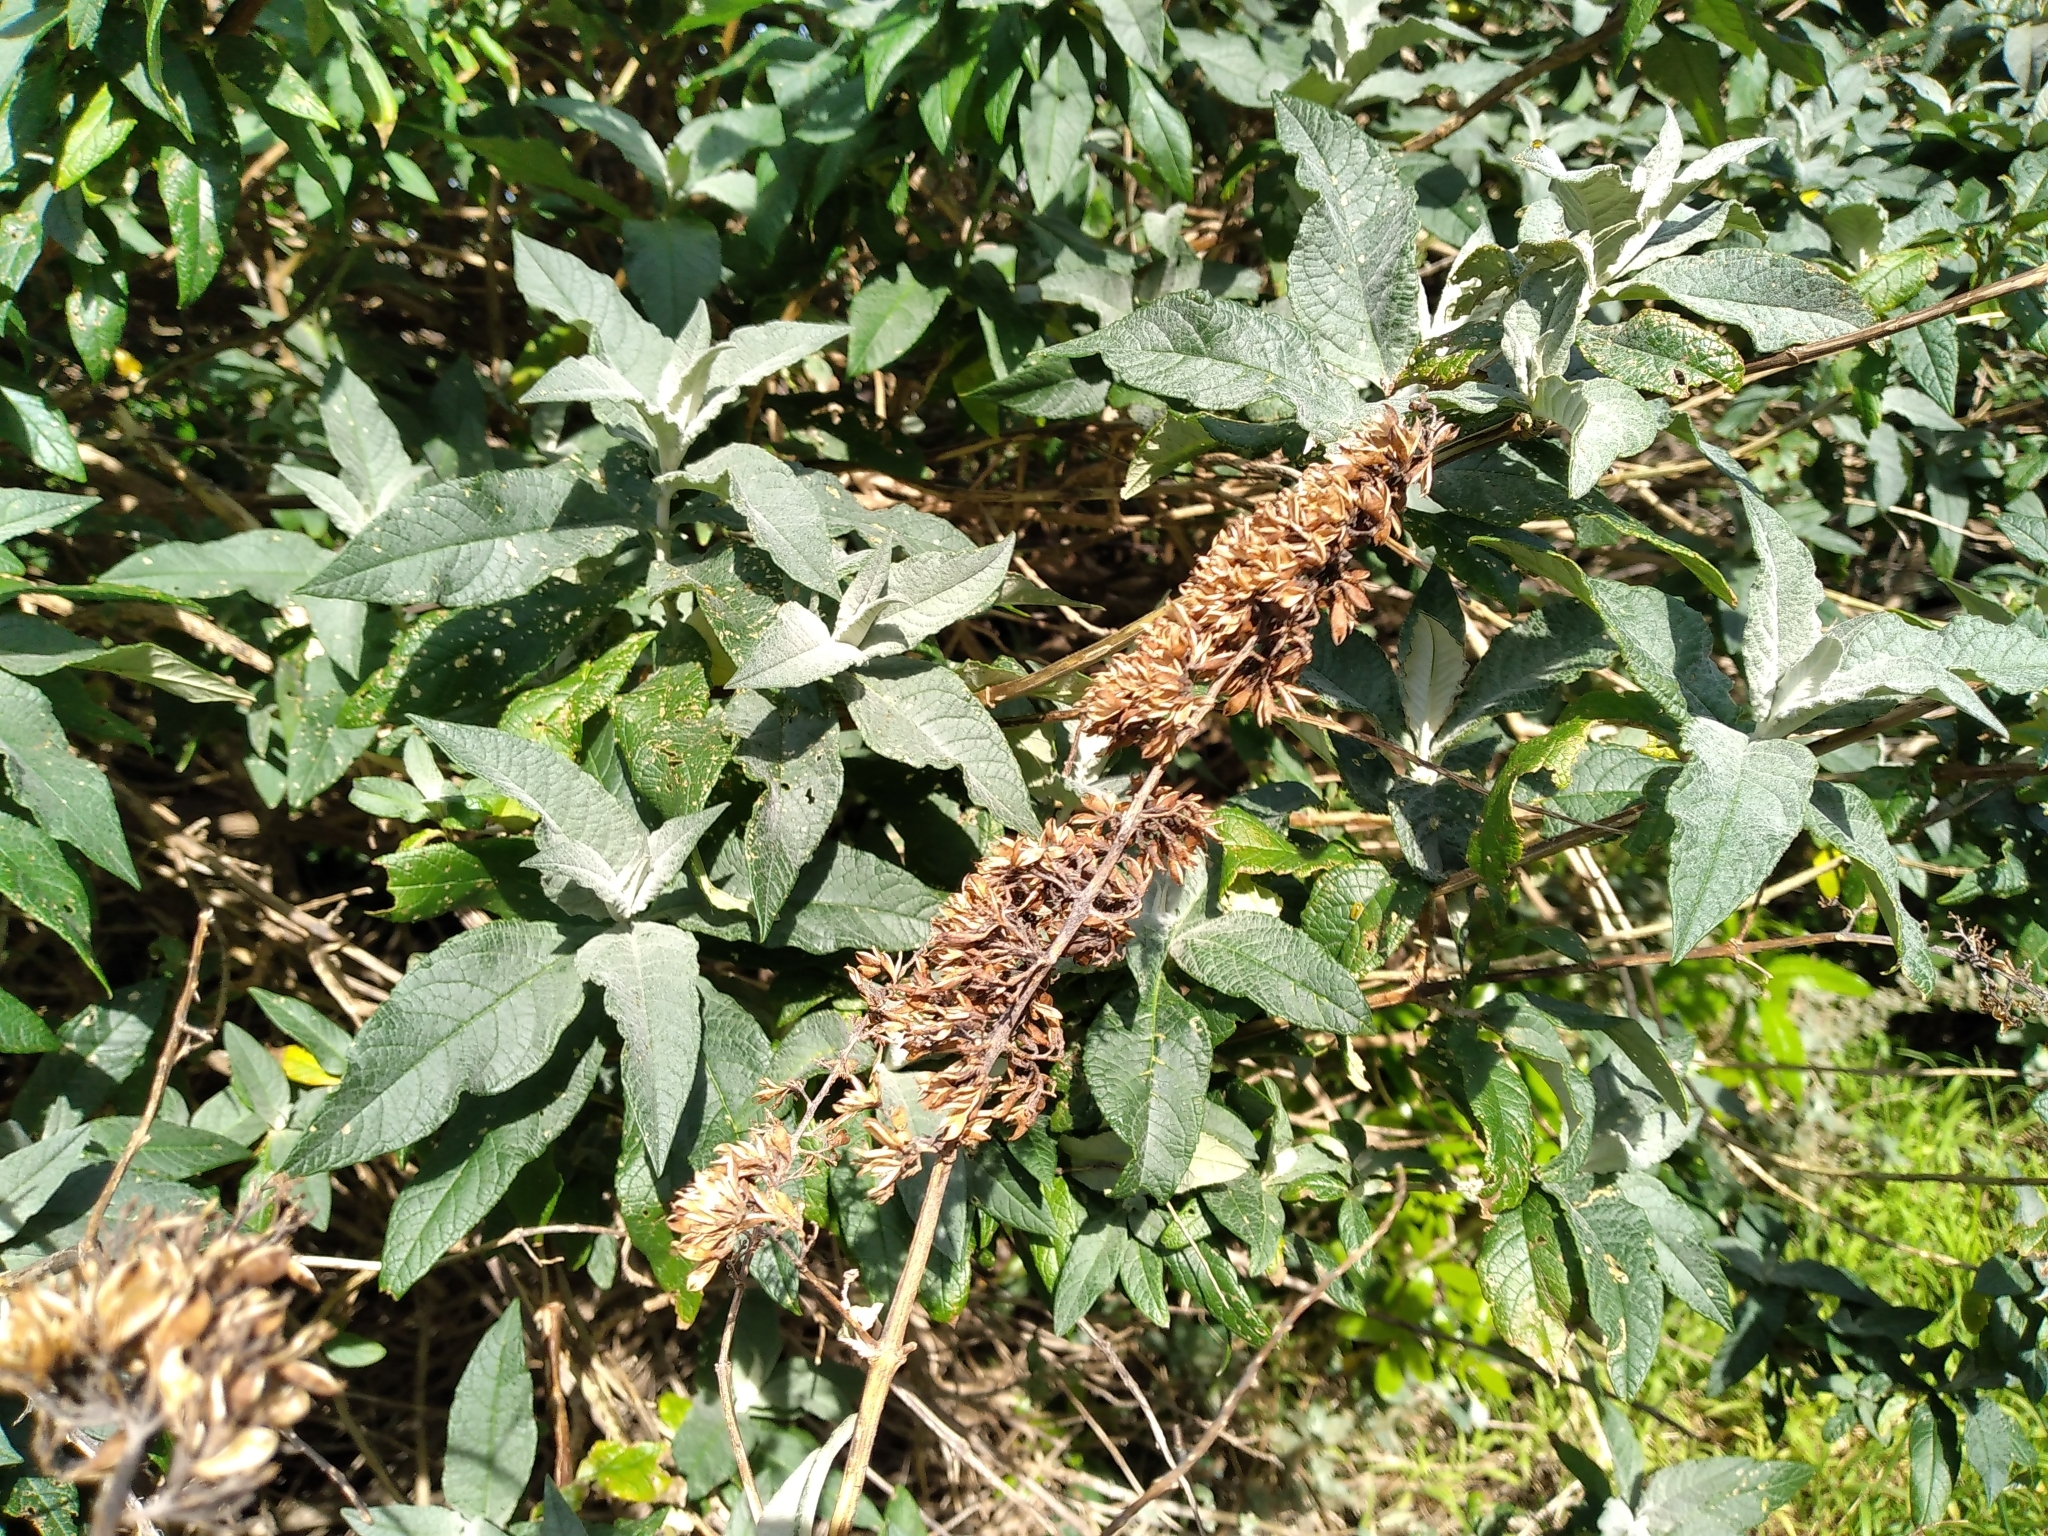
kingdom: Plantae
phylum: Tracheophyta
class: Magnoliopsida
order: Lamiales
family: Scrophulariaceae
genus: Buddleja
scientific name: Buddleja davidii
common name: Butterfly-bush
